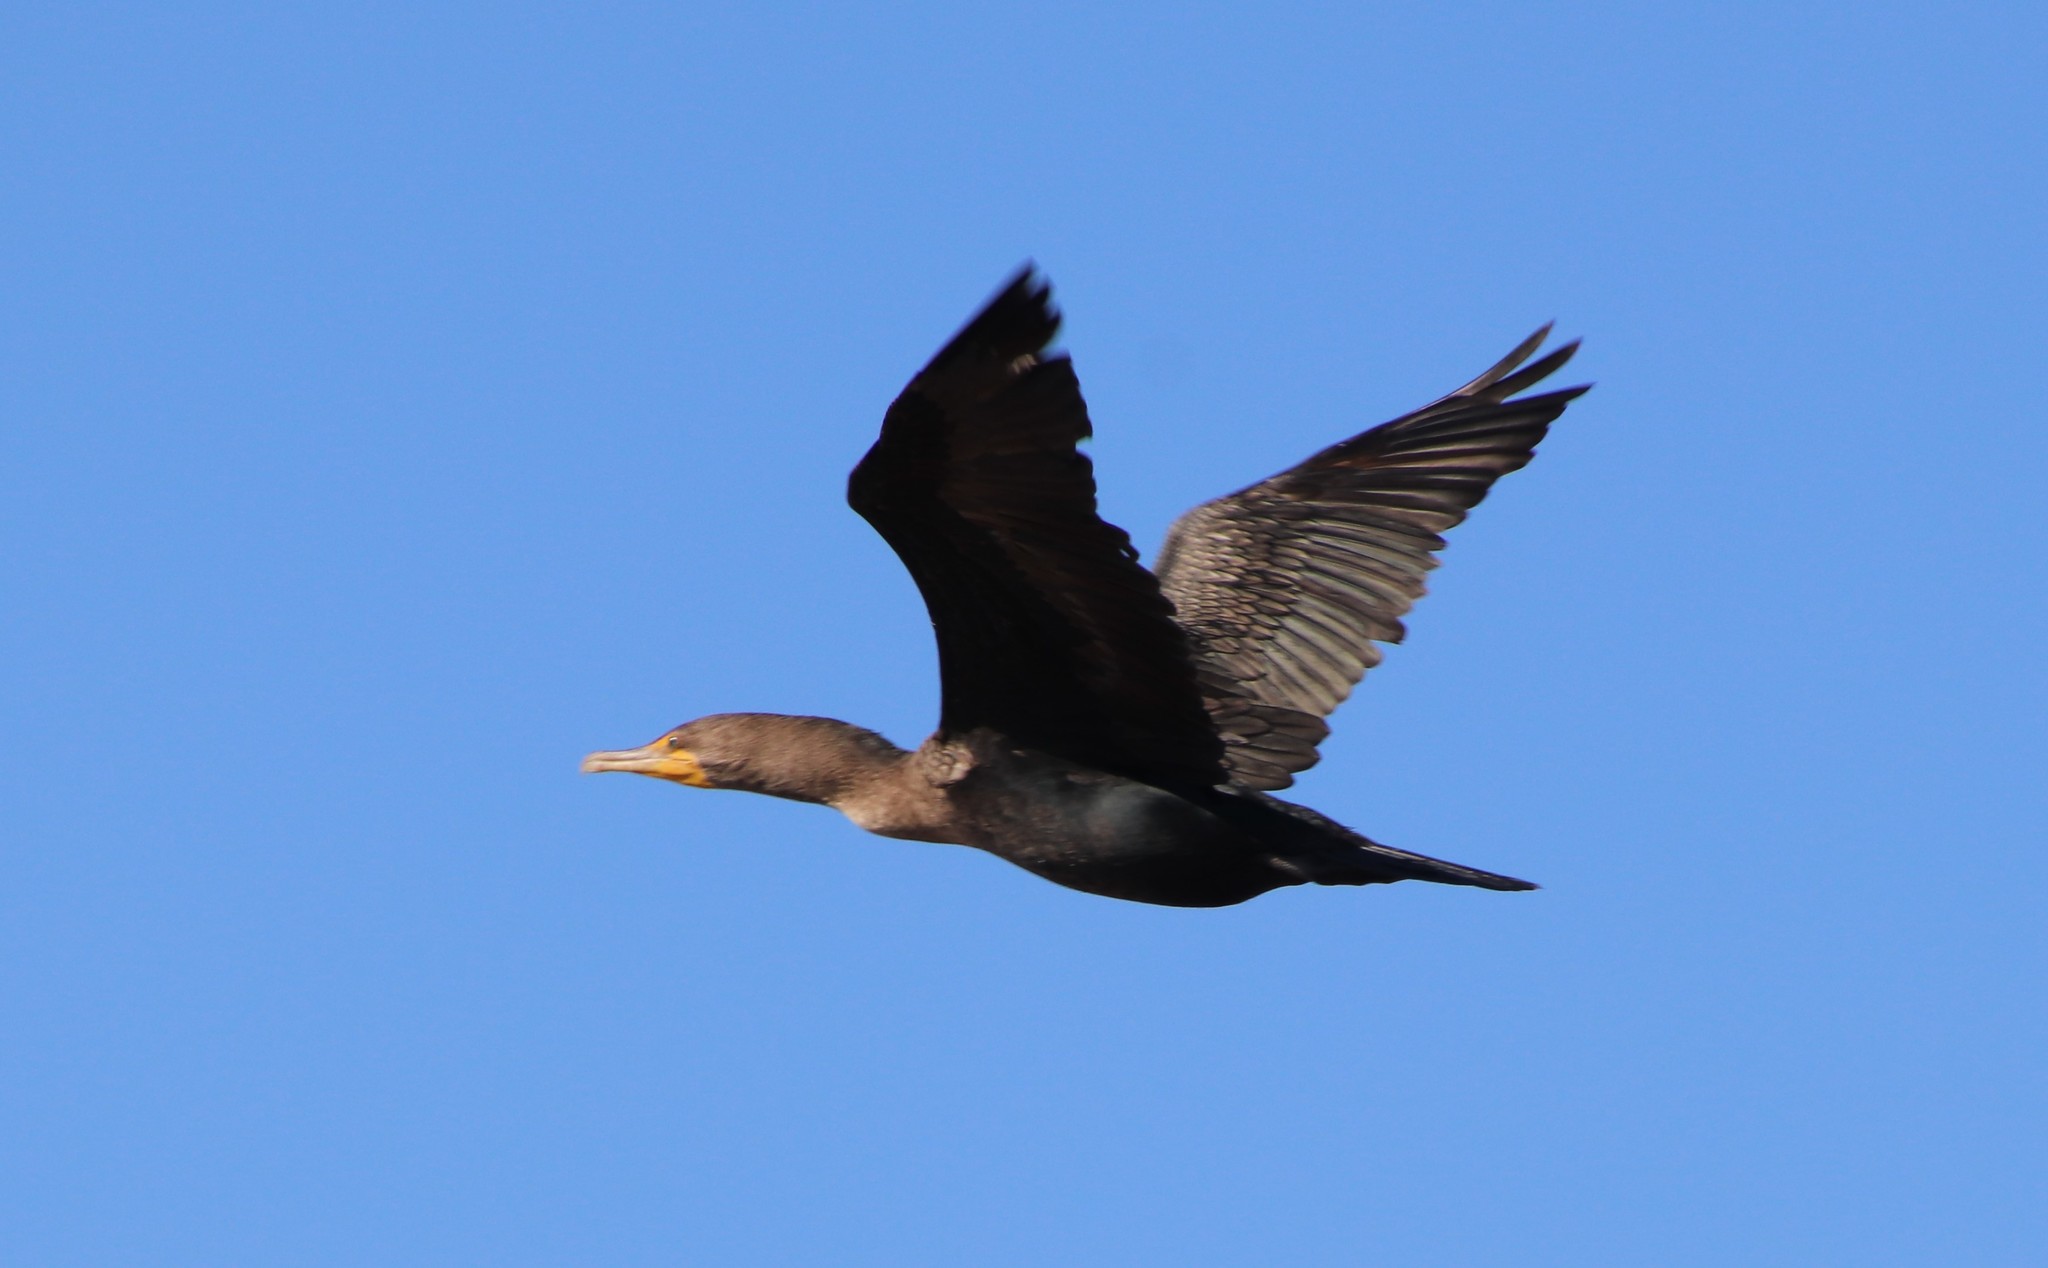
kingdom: Animalia
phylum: Chordata
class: Aves
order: Suliformes
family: Phalacrocoracidae
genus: Phalacrocorax
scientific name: Phalacrocorax auritus
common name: Double-crested cormorant
